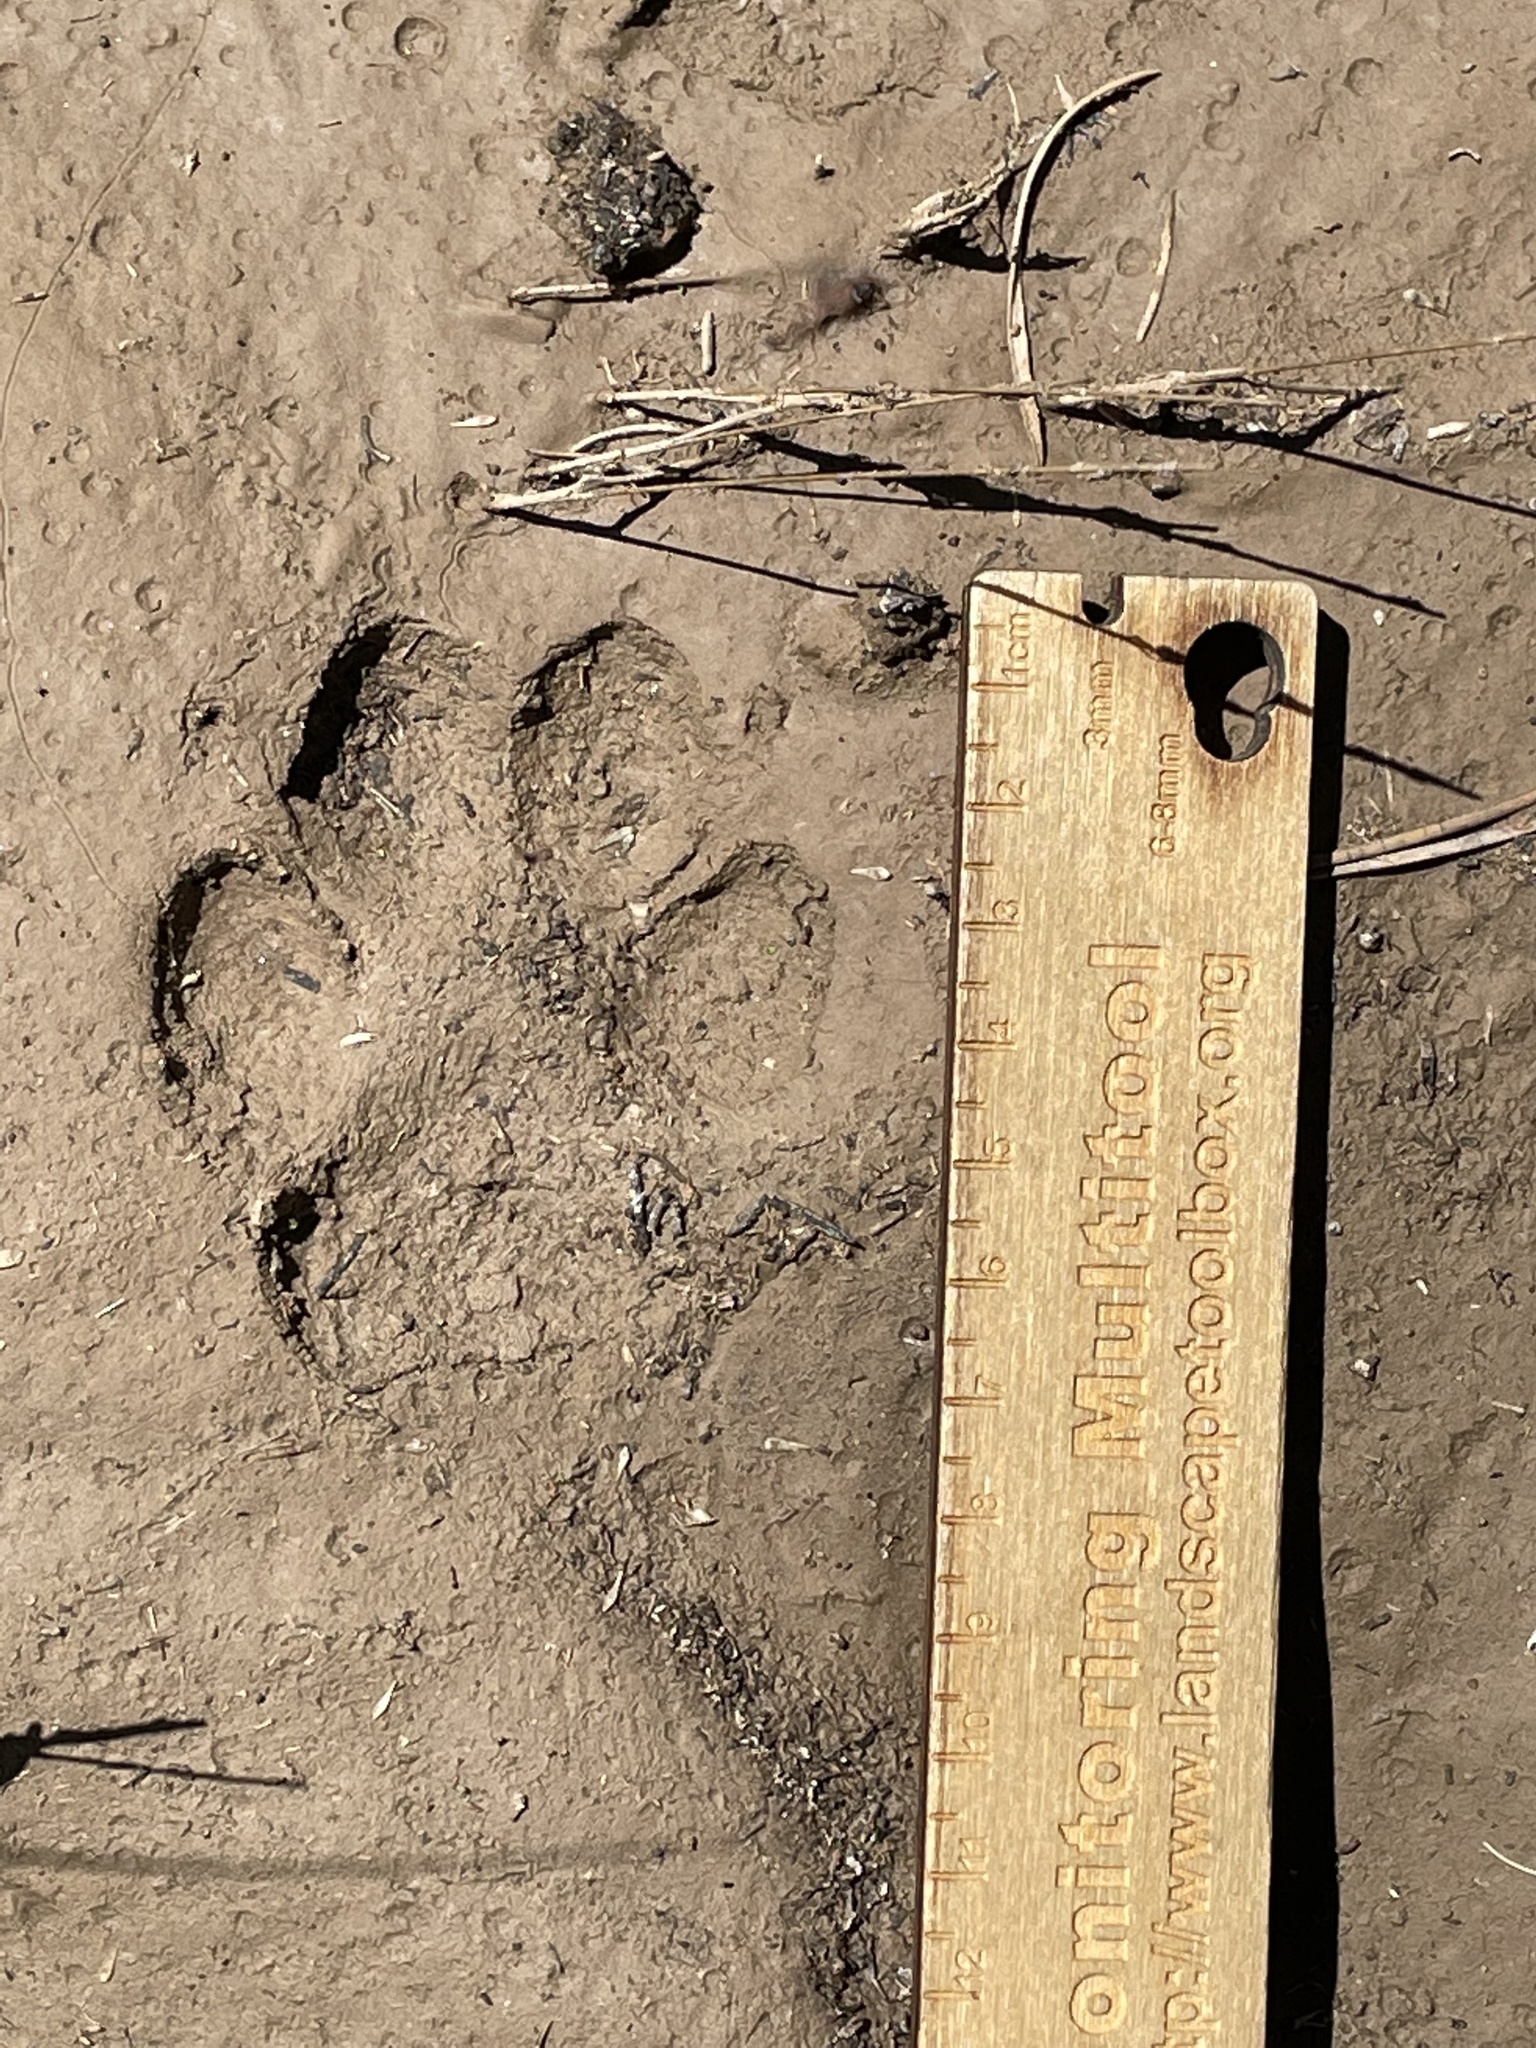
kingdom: Animalia
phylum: Chordata
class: Mammalia
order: Carnivora
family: Canidae
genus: Canis
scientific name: Canis latrans
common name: Coyote
